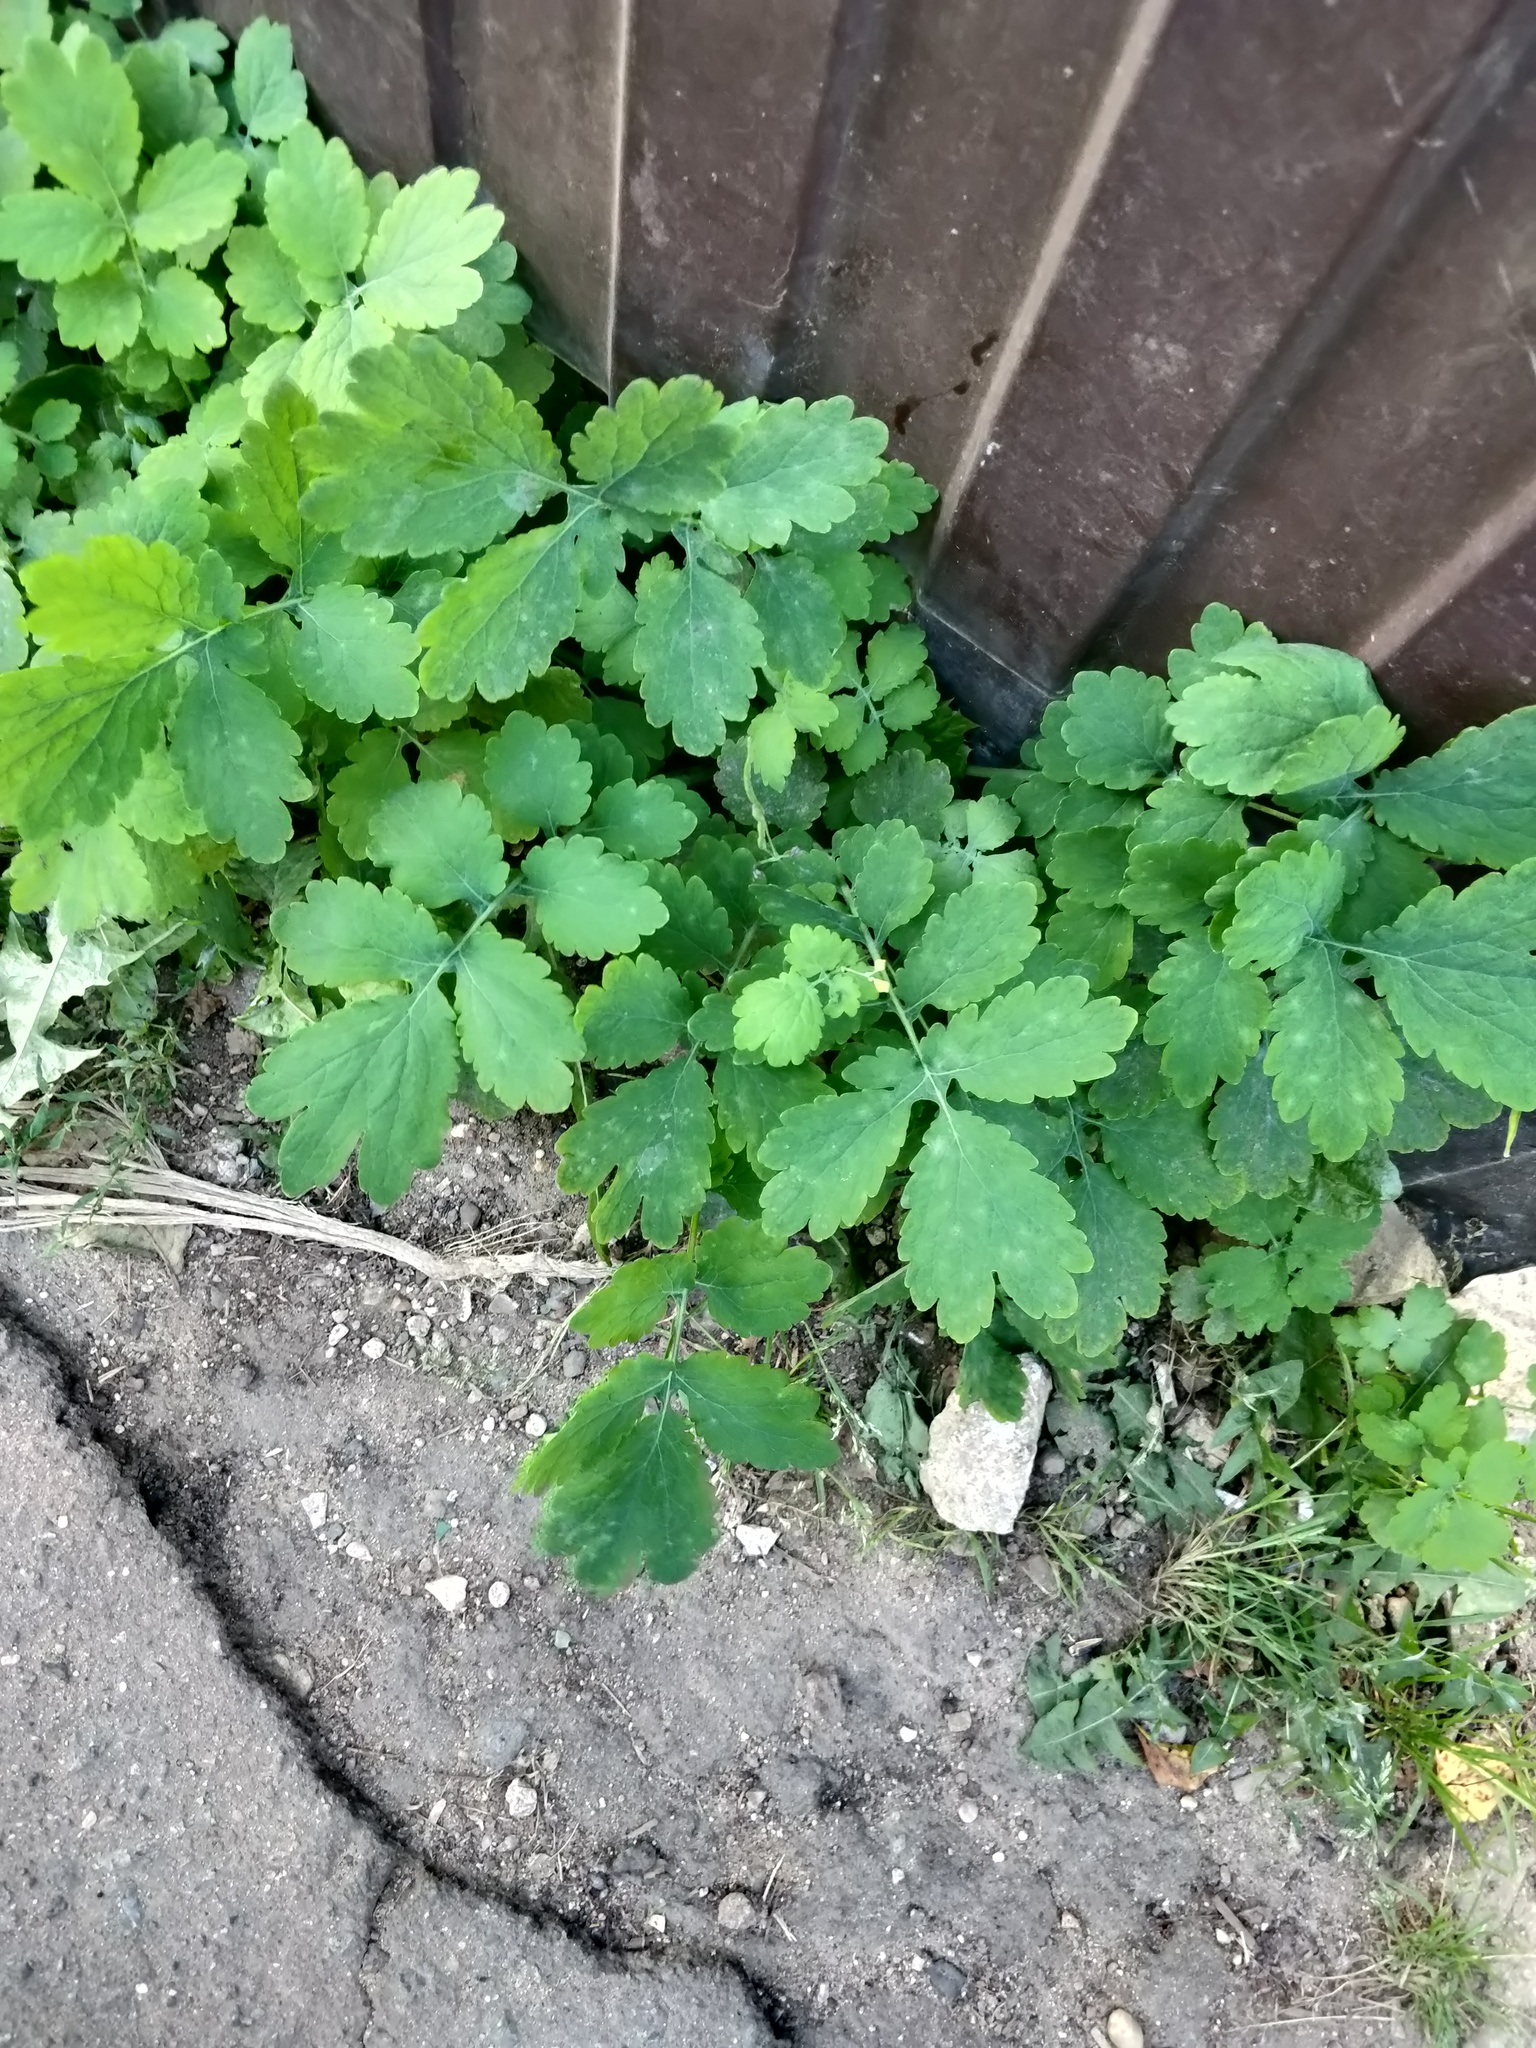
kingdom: Plantae
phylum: Tracheophyta
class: Magnoliopsida
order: Ranunculales
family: Papaveraceae
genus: Chelidonium
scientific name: Chelidonium majus
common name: Greater celandine
